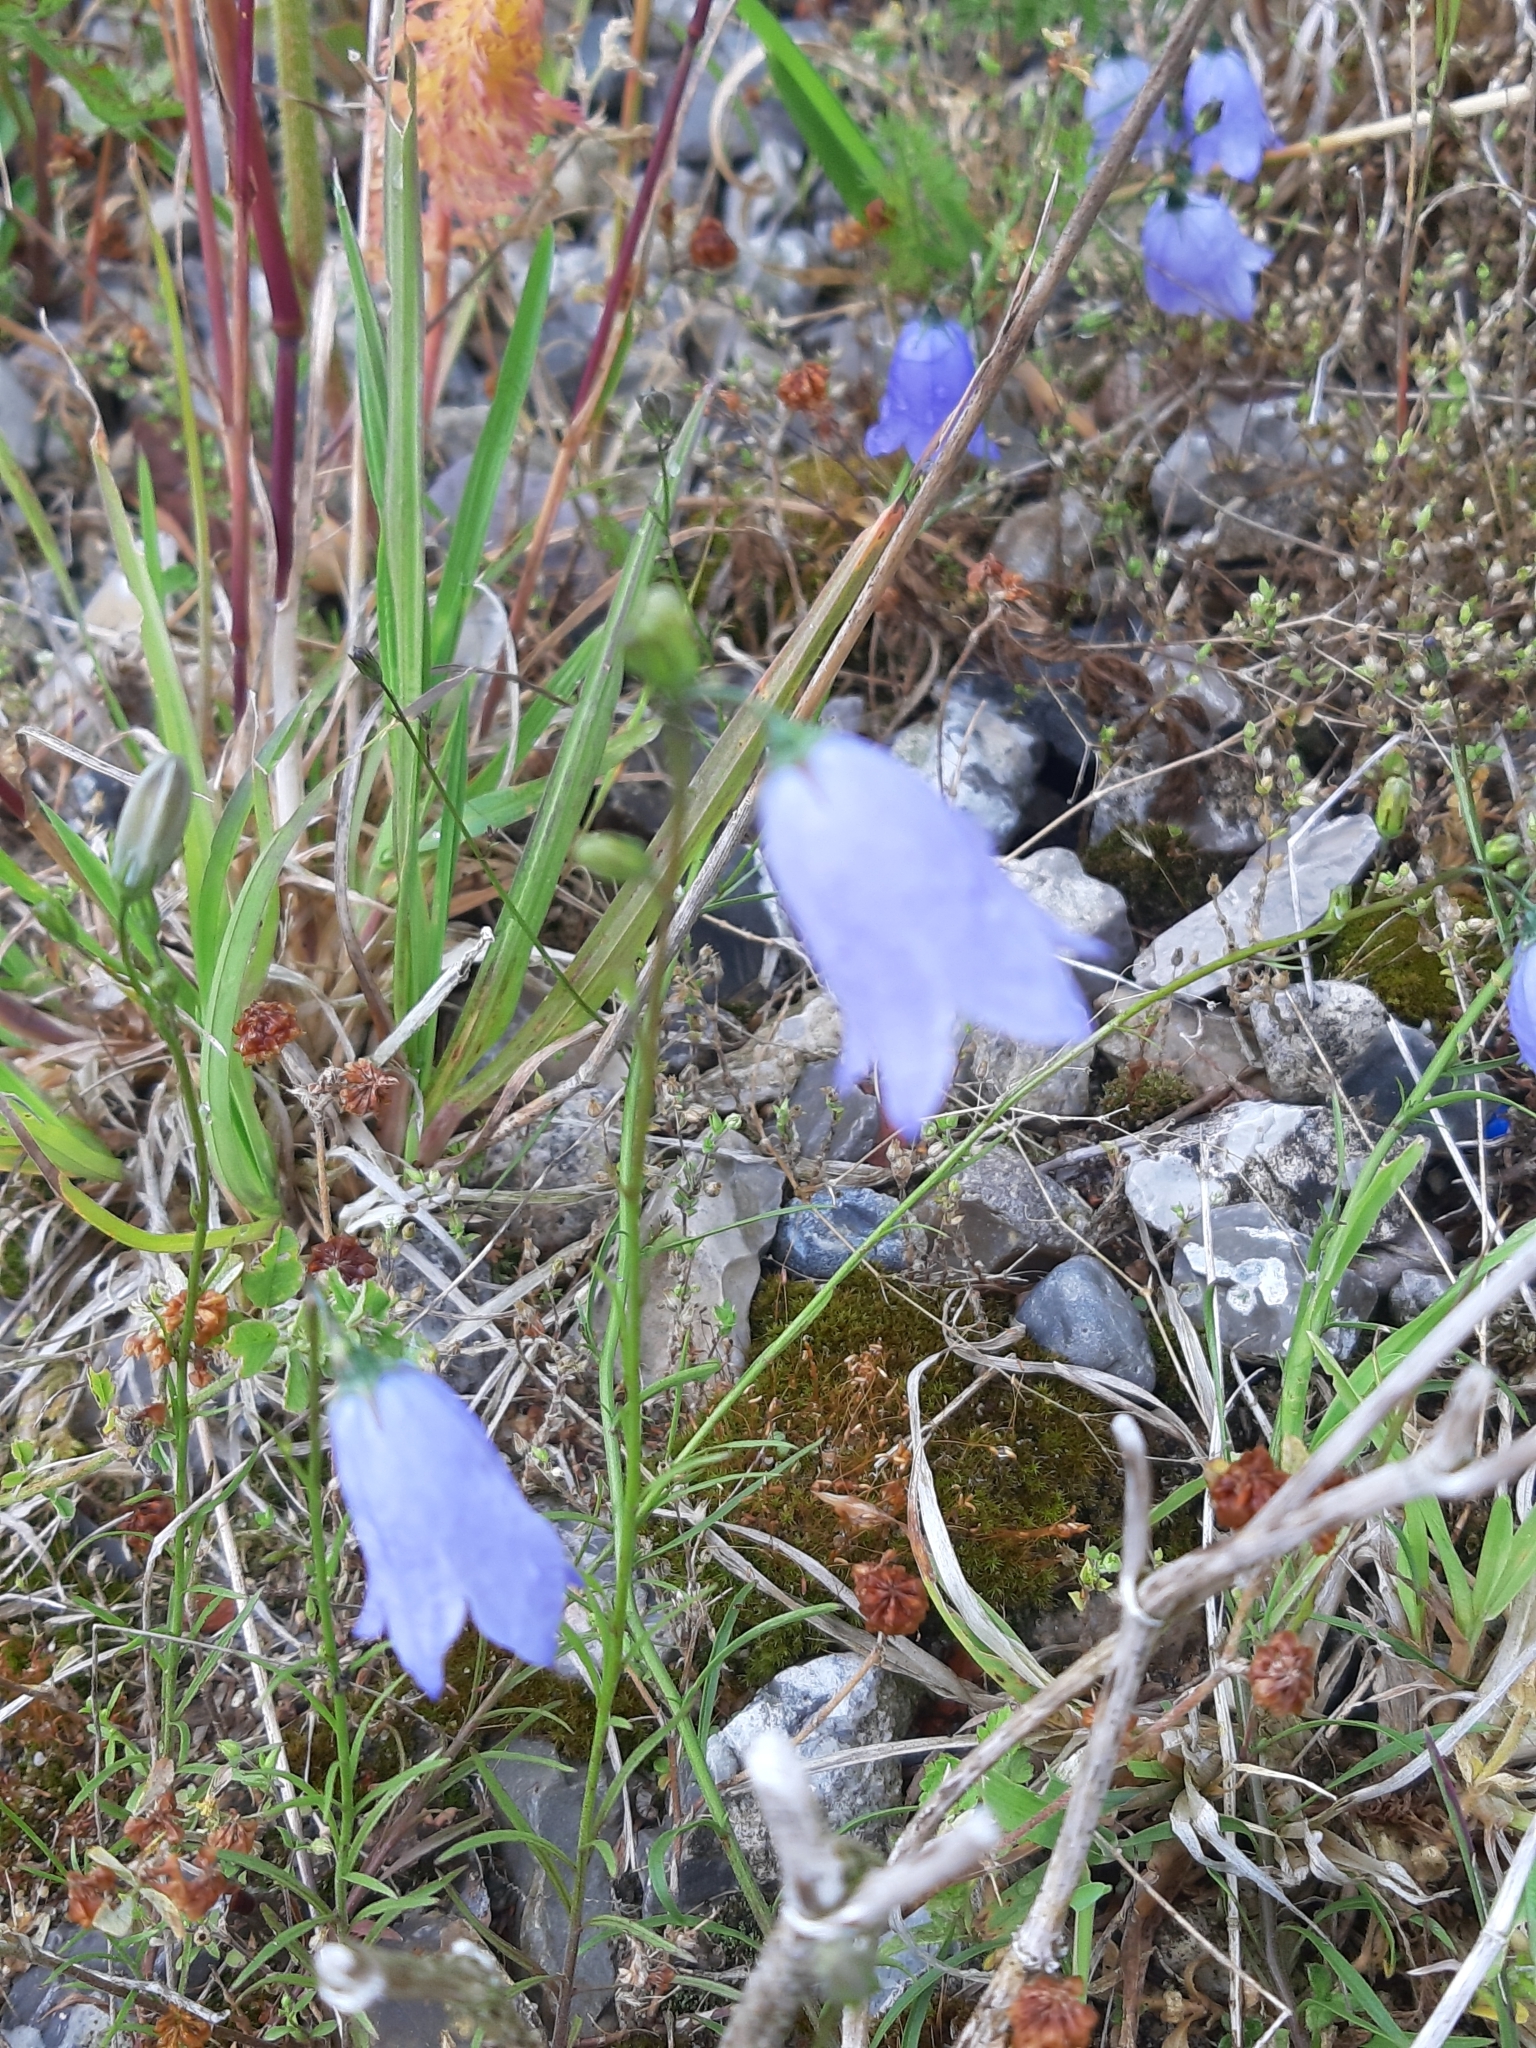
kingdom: Plantae
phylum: Tracheophyta
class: Magnoliopsida
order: Asterales
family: Campanulaceae
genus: Campanula
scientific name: Campanula rotundifolia
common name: Harebell
